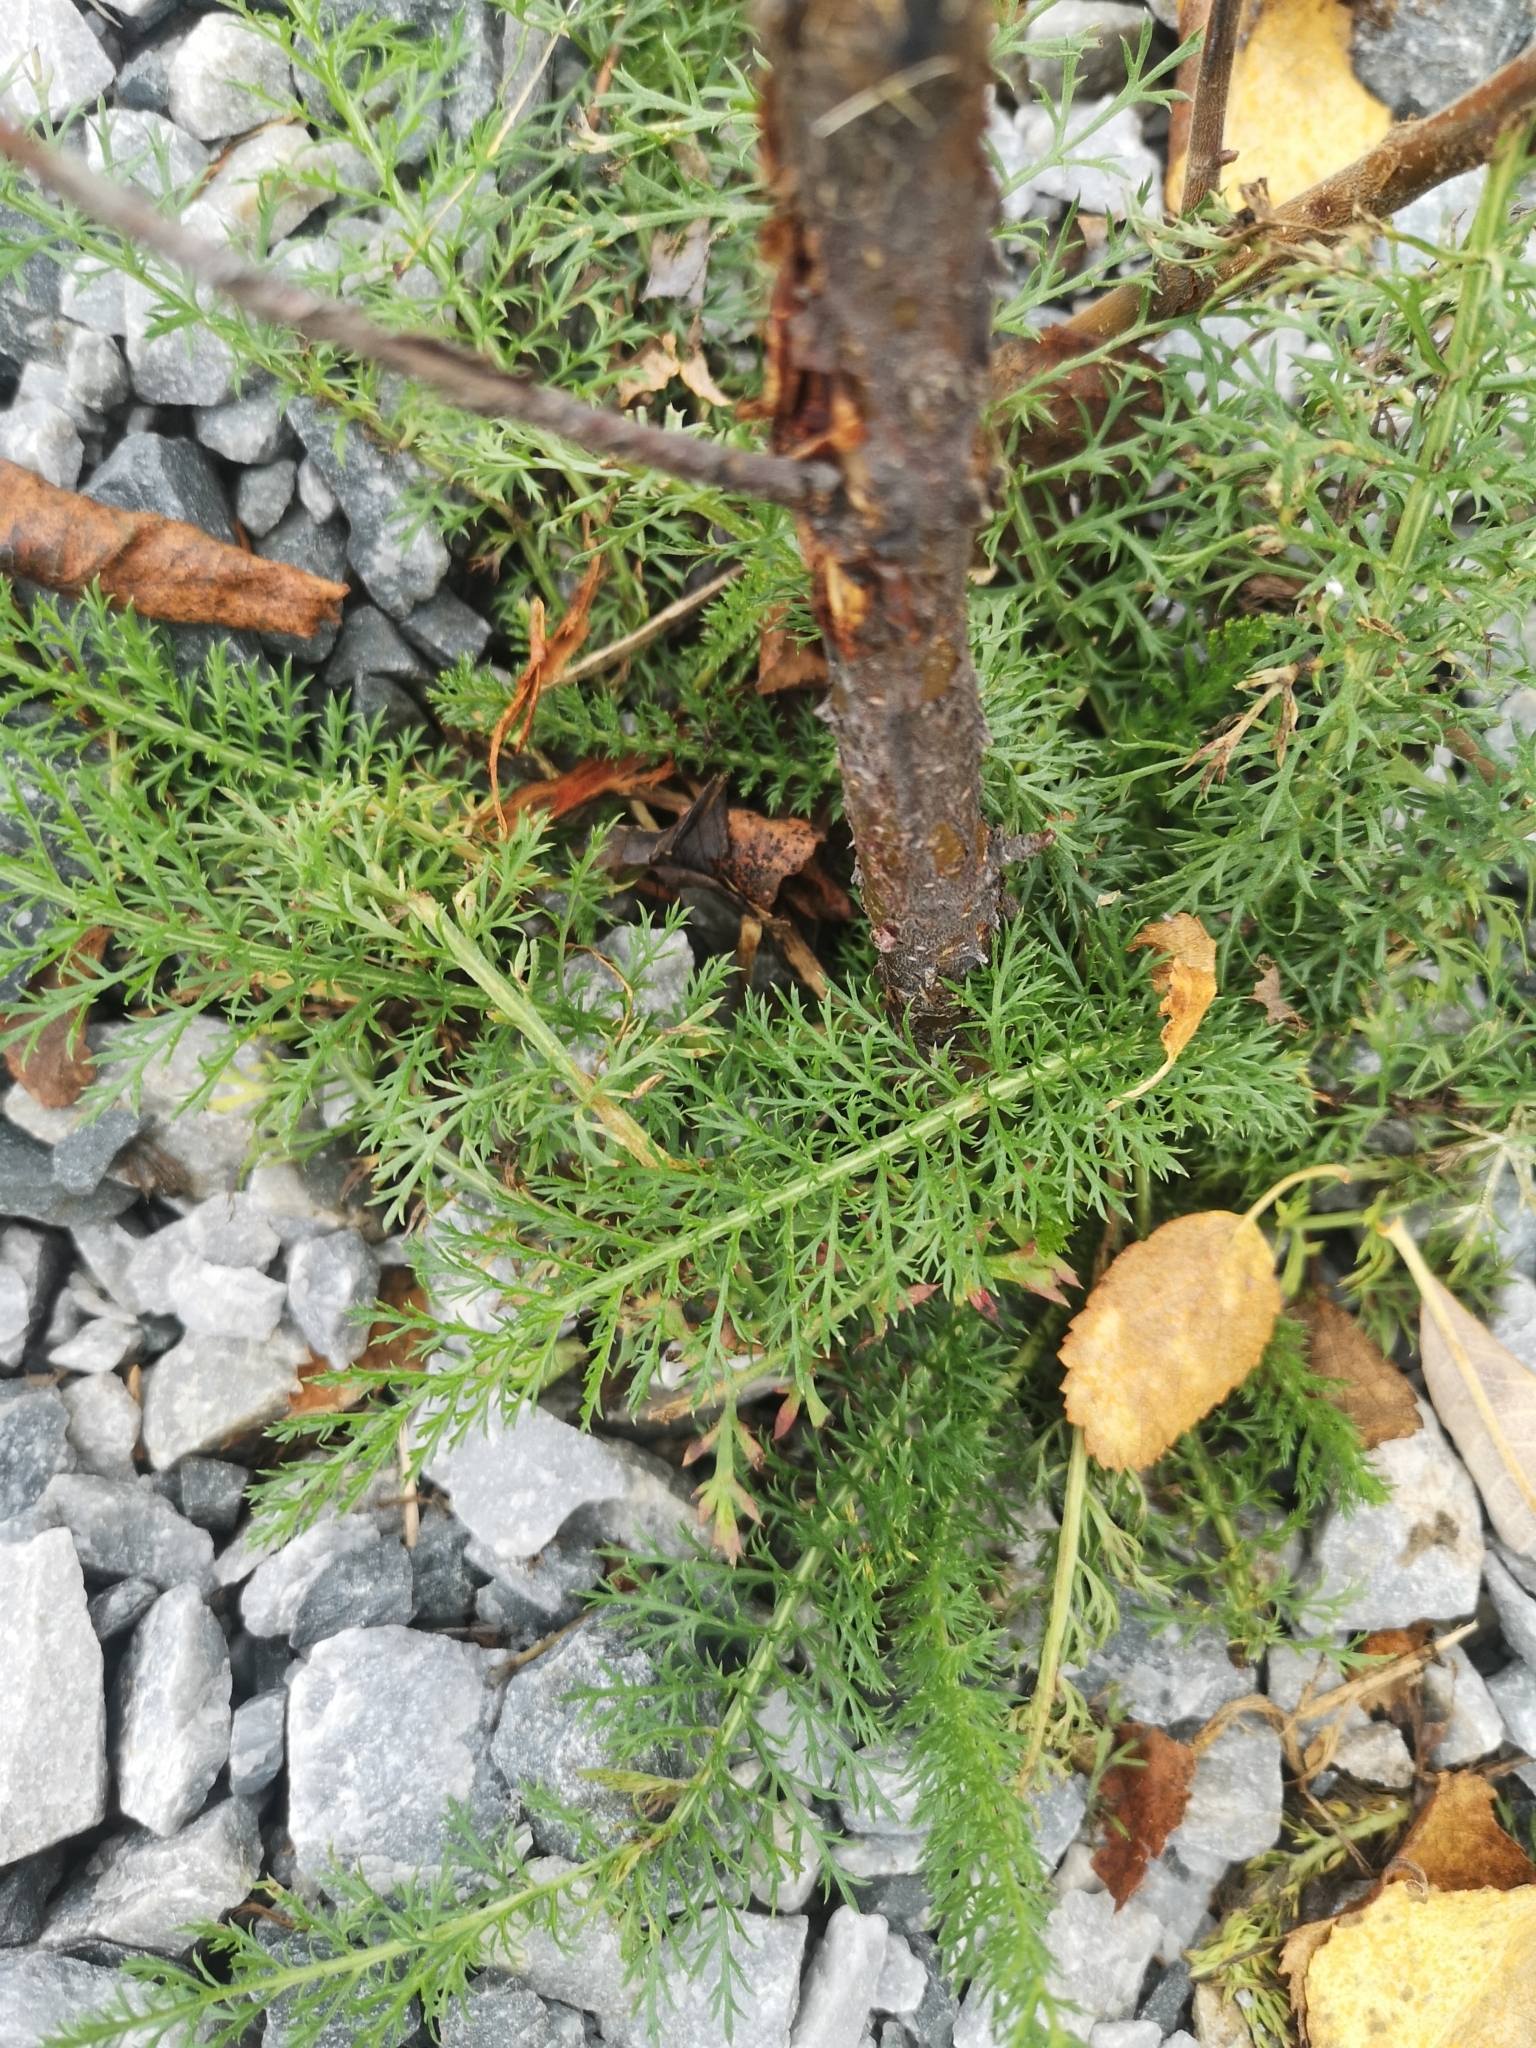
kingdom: Plantae
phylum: Tracheophyta
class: Magnoliopsida
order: Asterales
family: Asteraceae
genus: Achillea
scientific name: Achillea millefolium
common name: Yarrow
